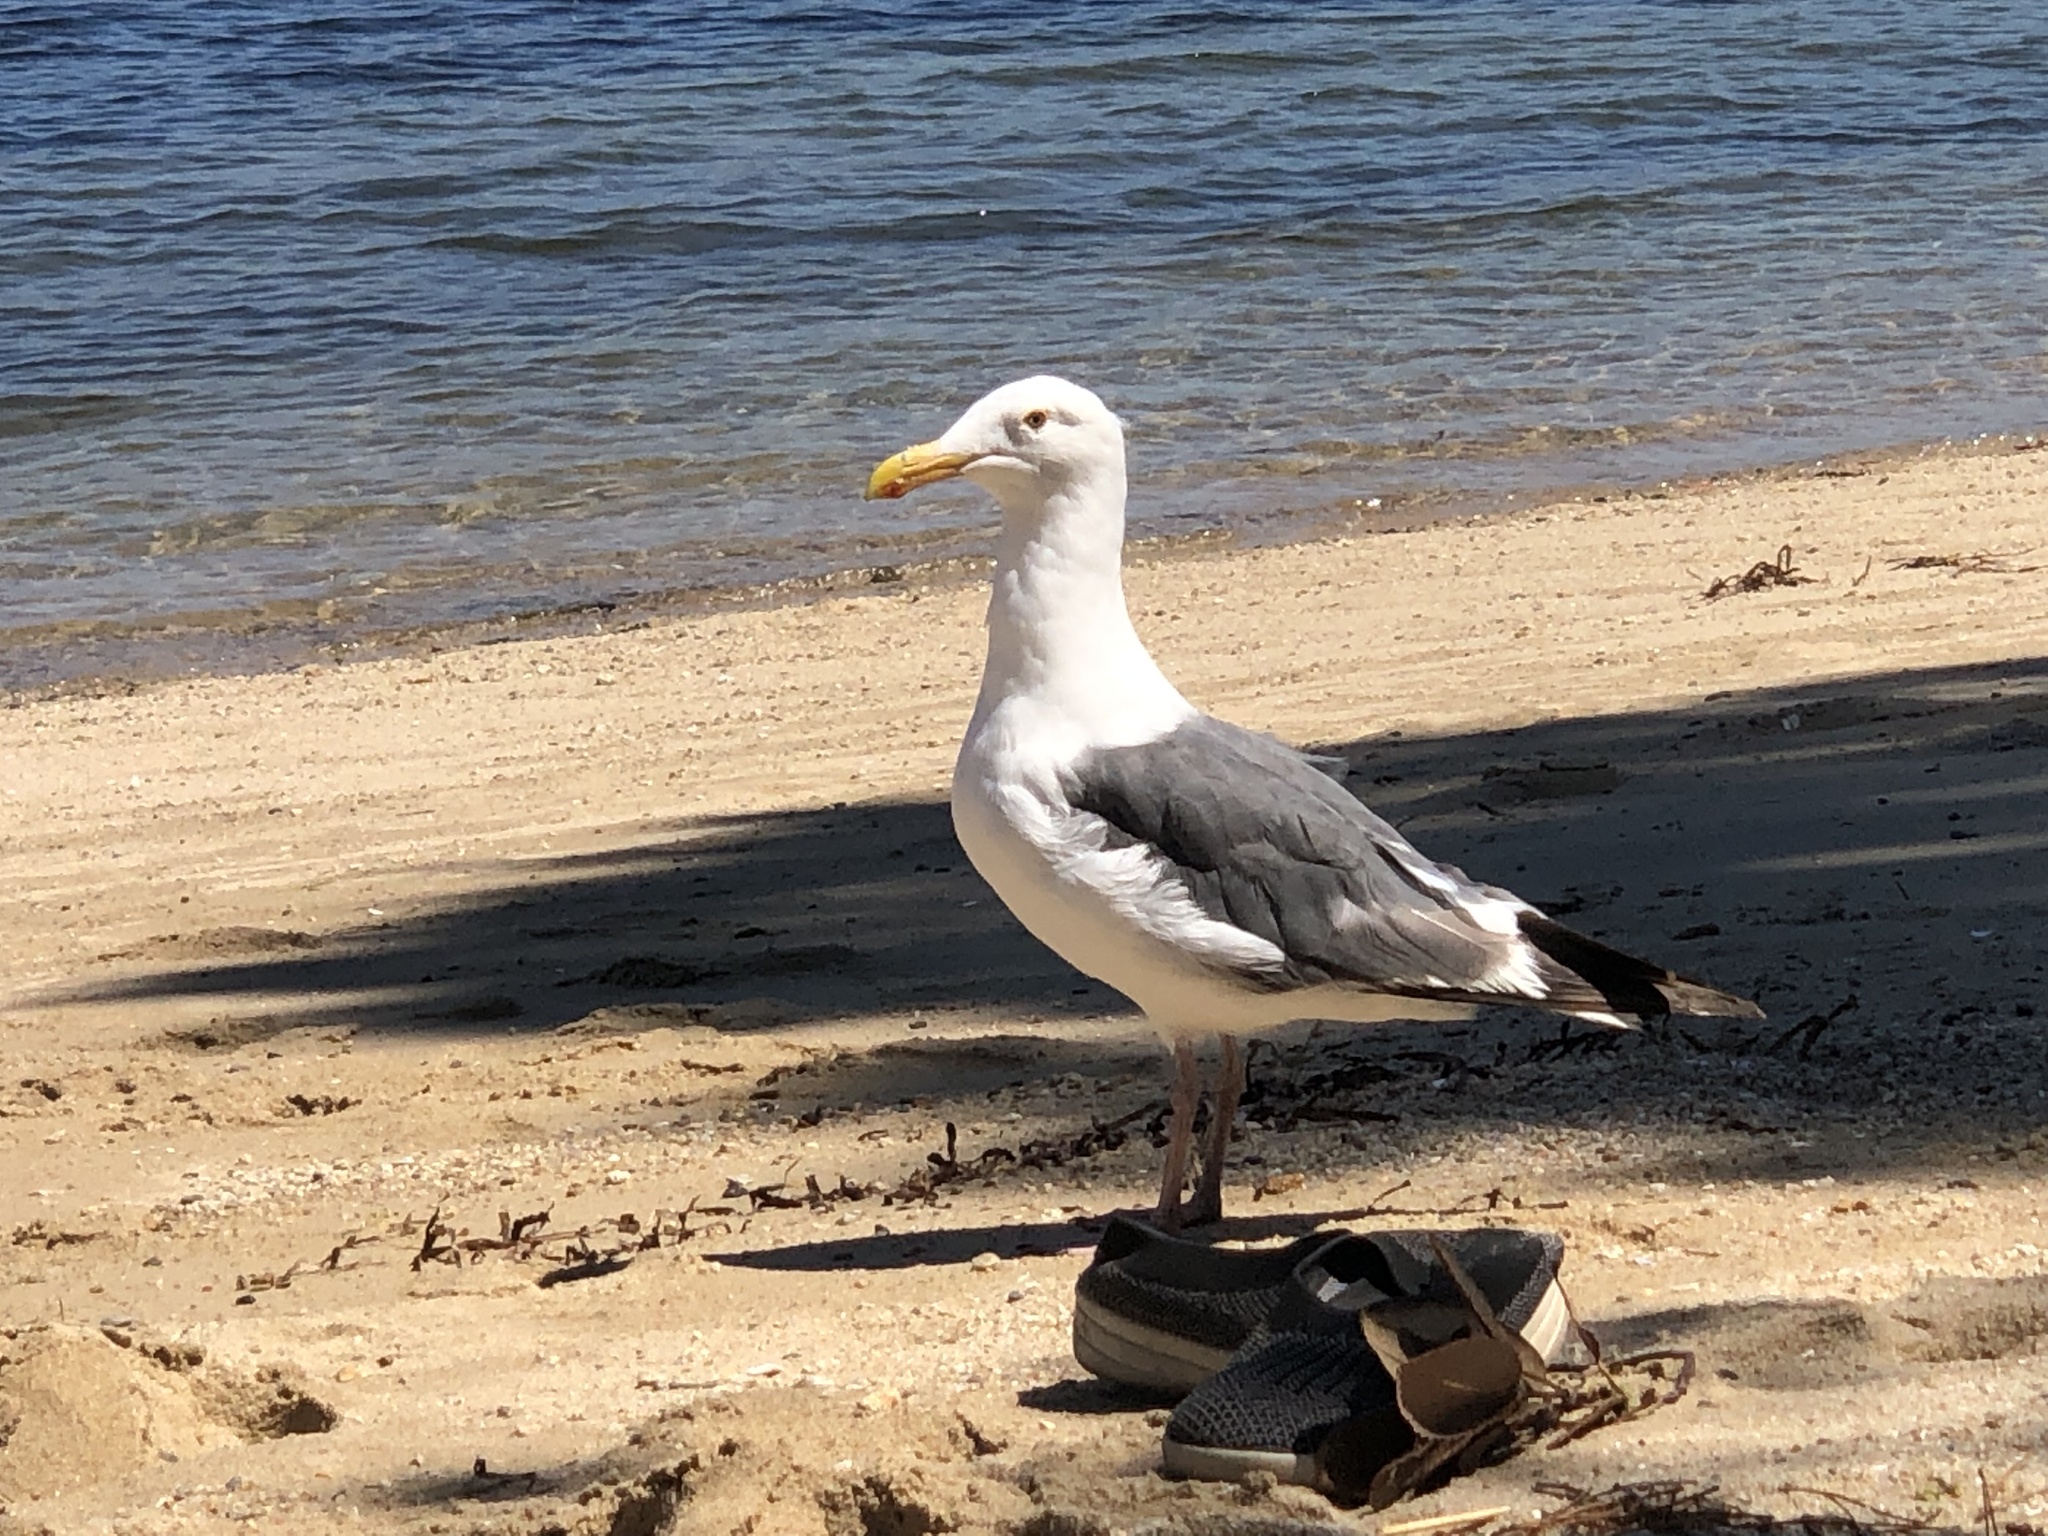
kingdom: Animalia
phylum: Chordata
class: Aves
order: Charadriiformes
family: Laridae
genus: Larus
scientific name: Larus occidentalis
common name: Western gull
